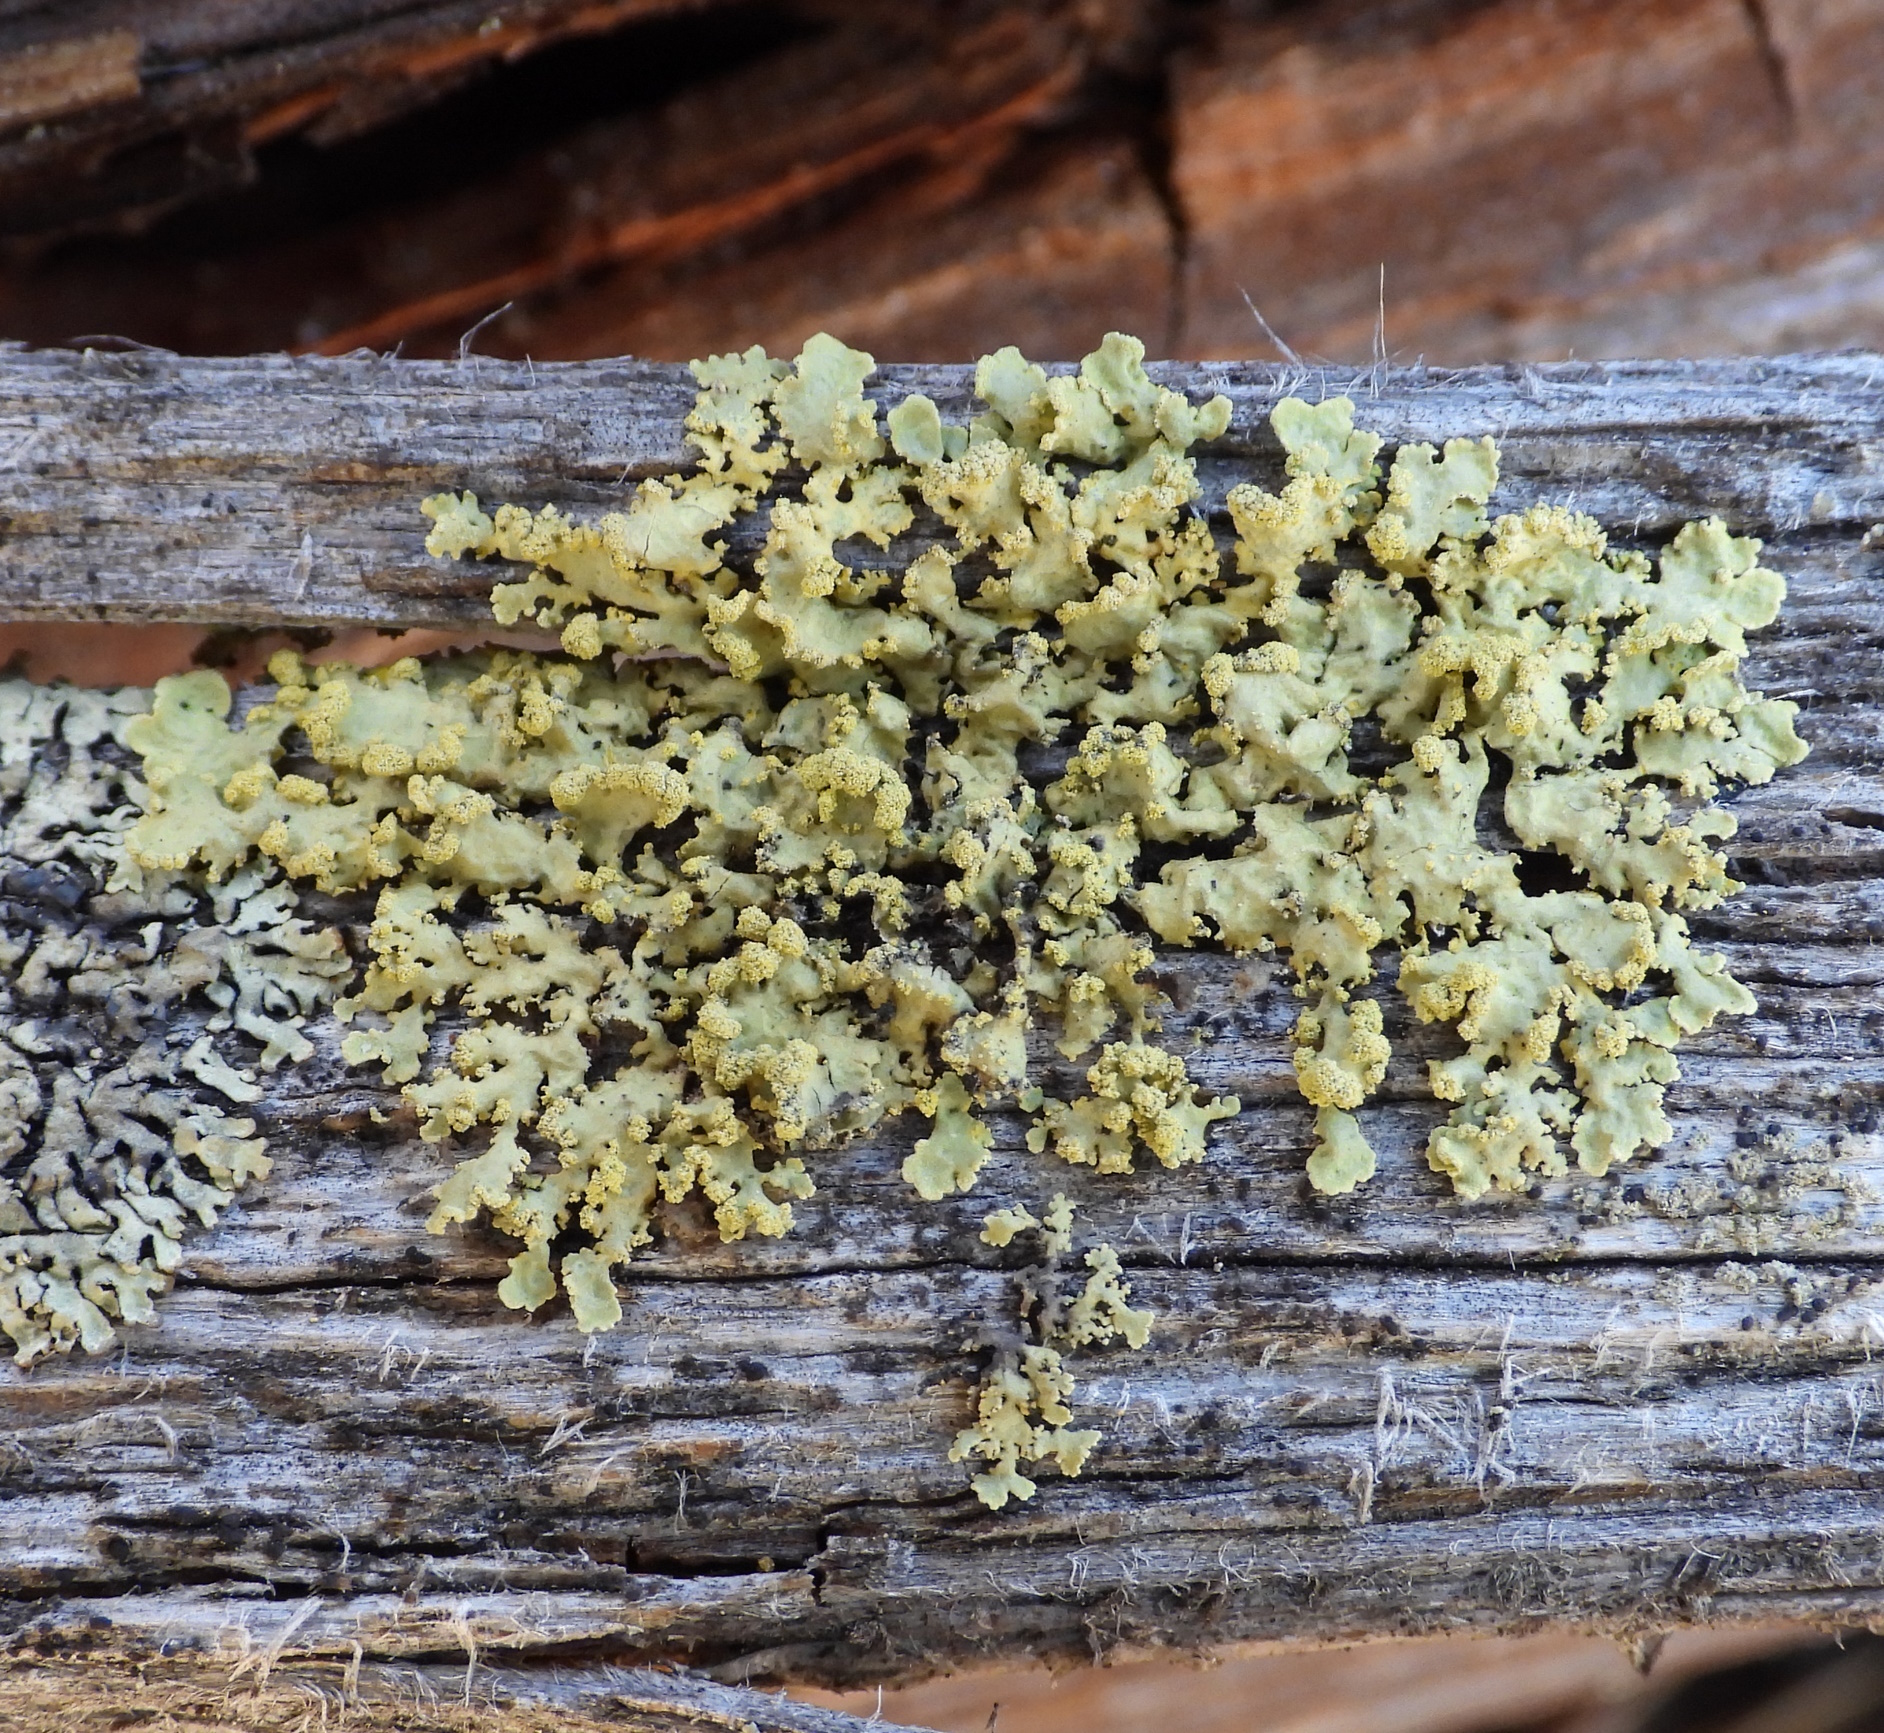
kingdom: Fungi
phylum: Ascomycota
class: Lecanoromycetes
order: Lecanorales
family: Parmeliaceae
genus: Vulpicida
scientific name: Vulpicida pinastri
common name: Powdered sunshine lichen
